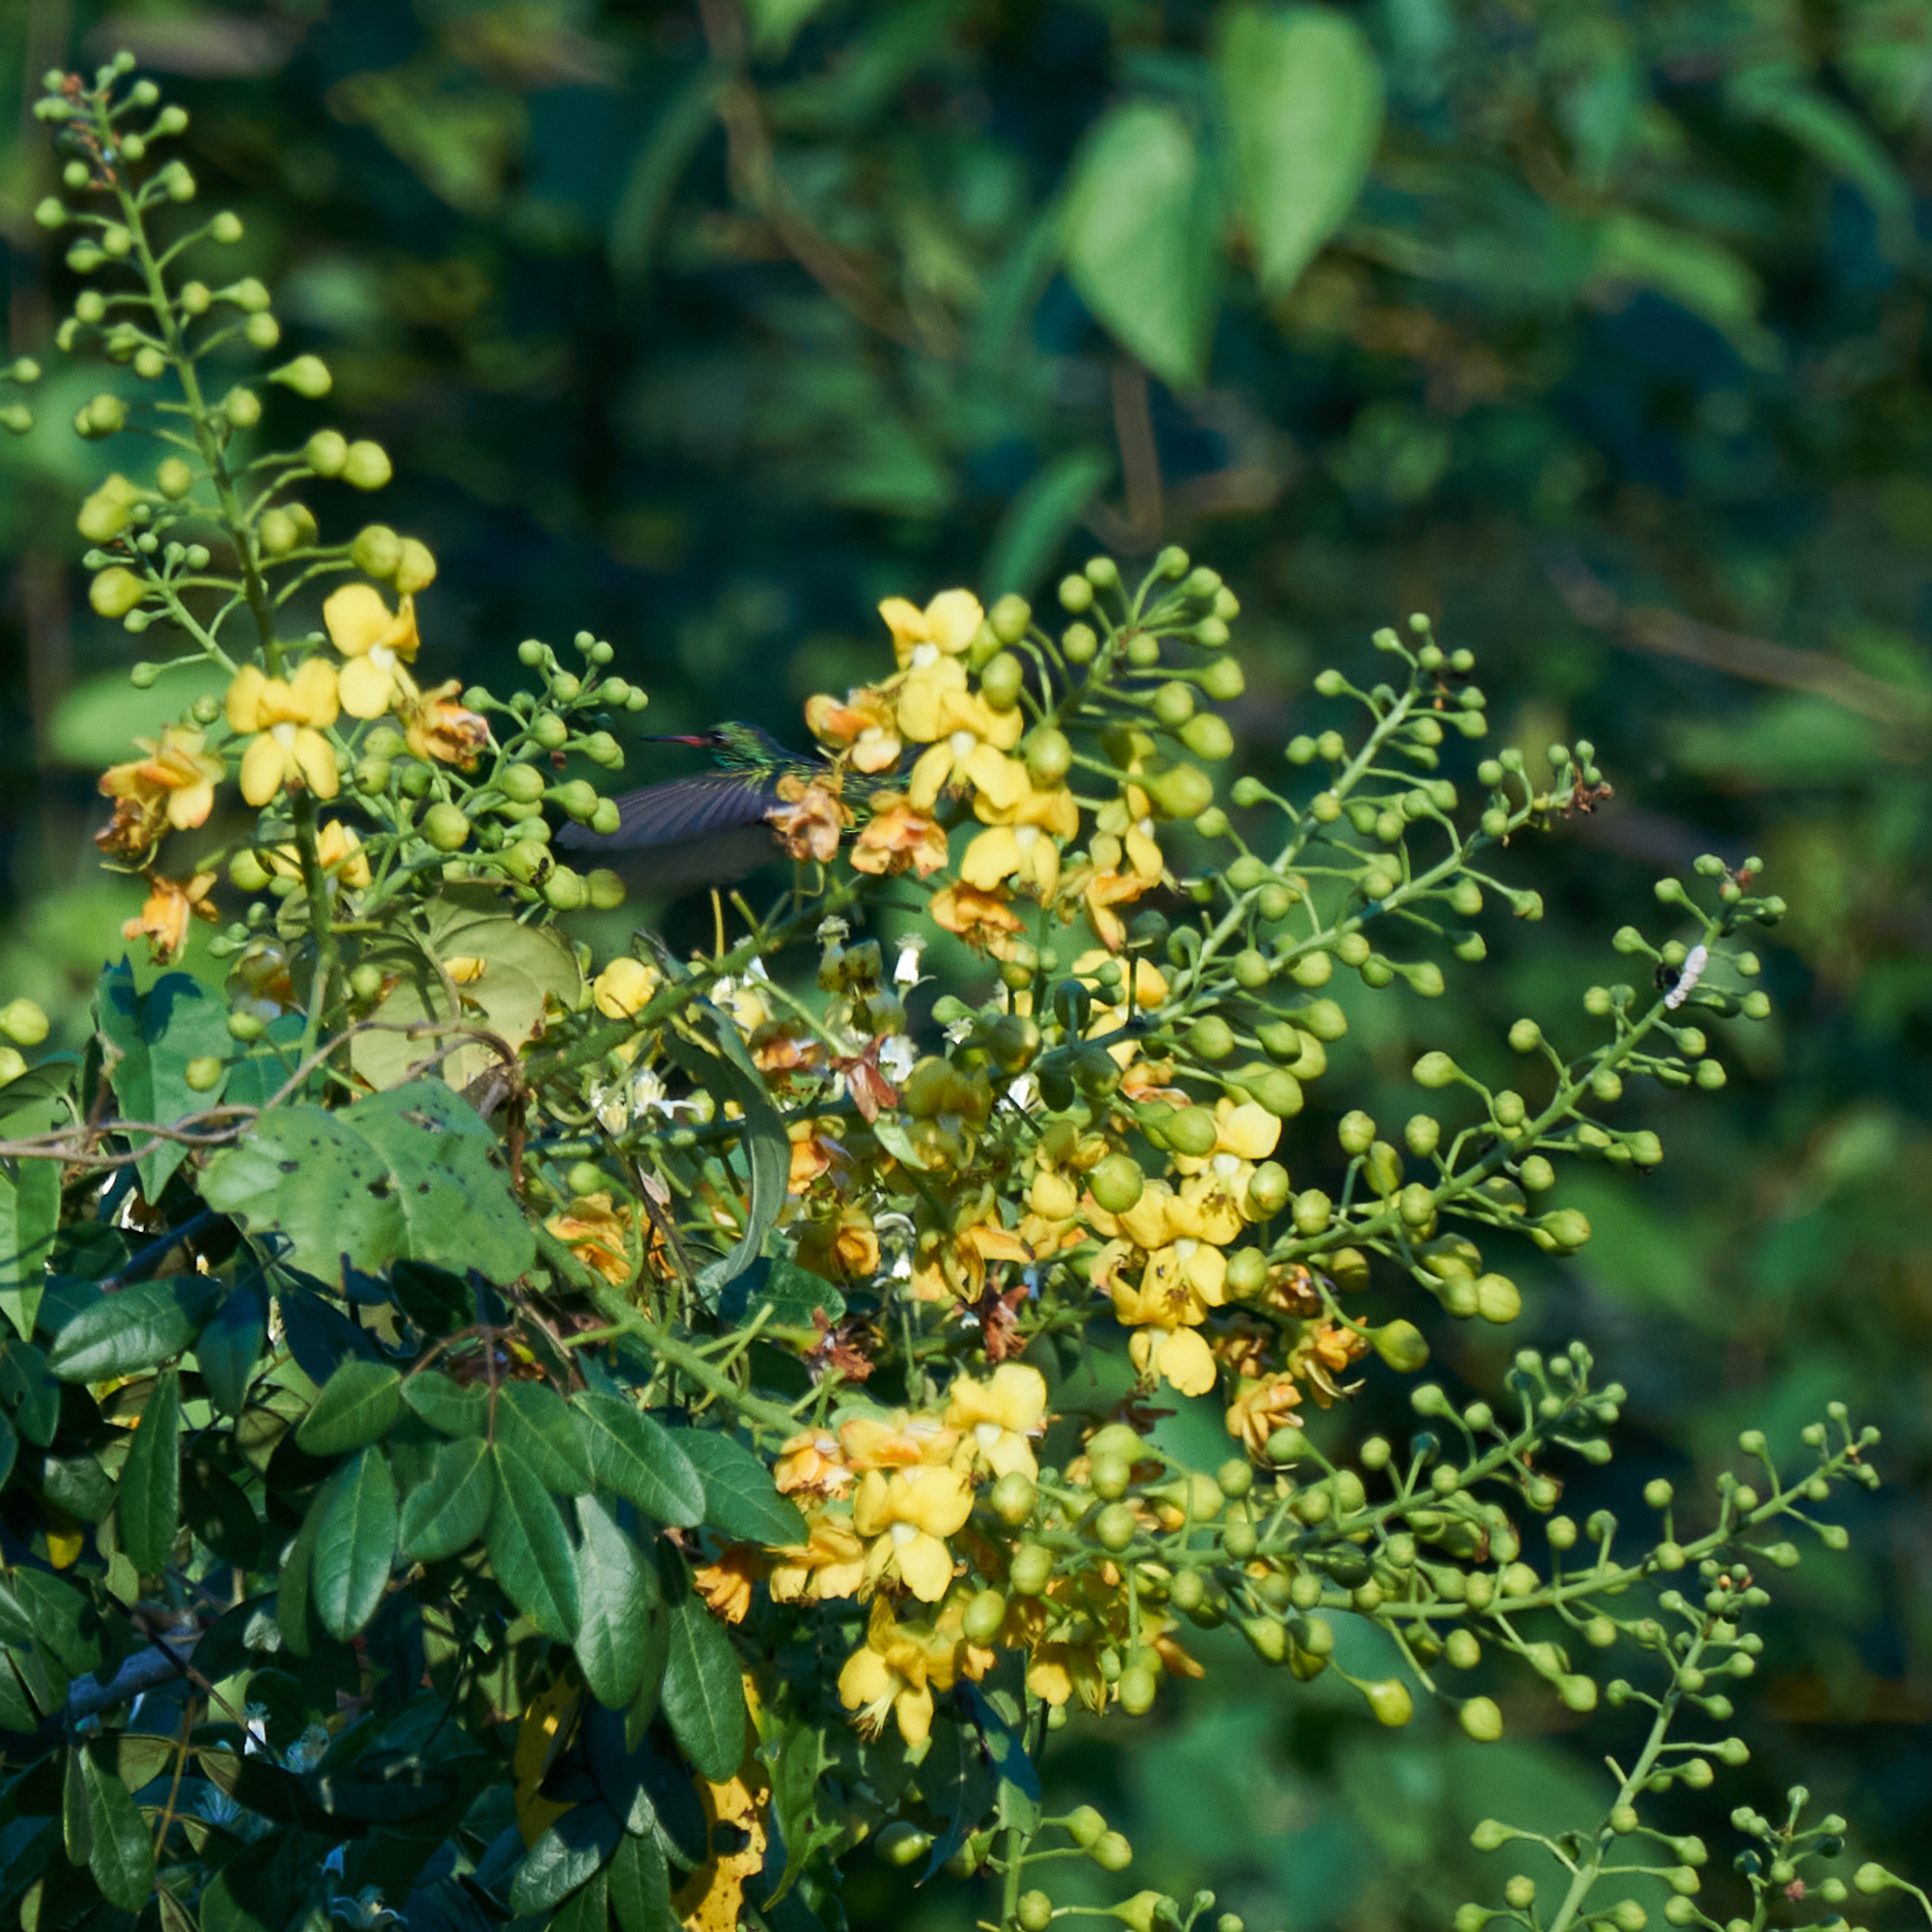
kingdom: Animalia
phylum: Chordata
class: Aves
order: Apodiformes
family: Trochilidae
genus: Cynanthus
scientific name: Cynanthus canivetii
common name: Canivet's emerald
